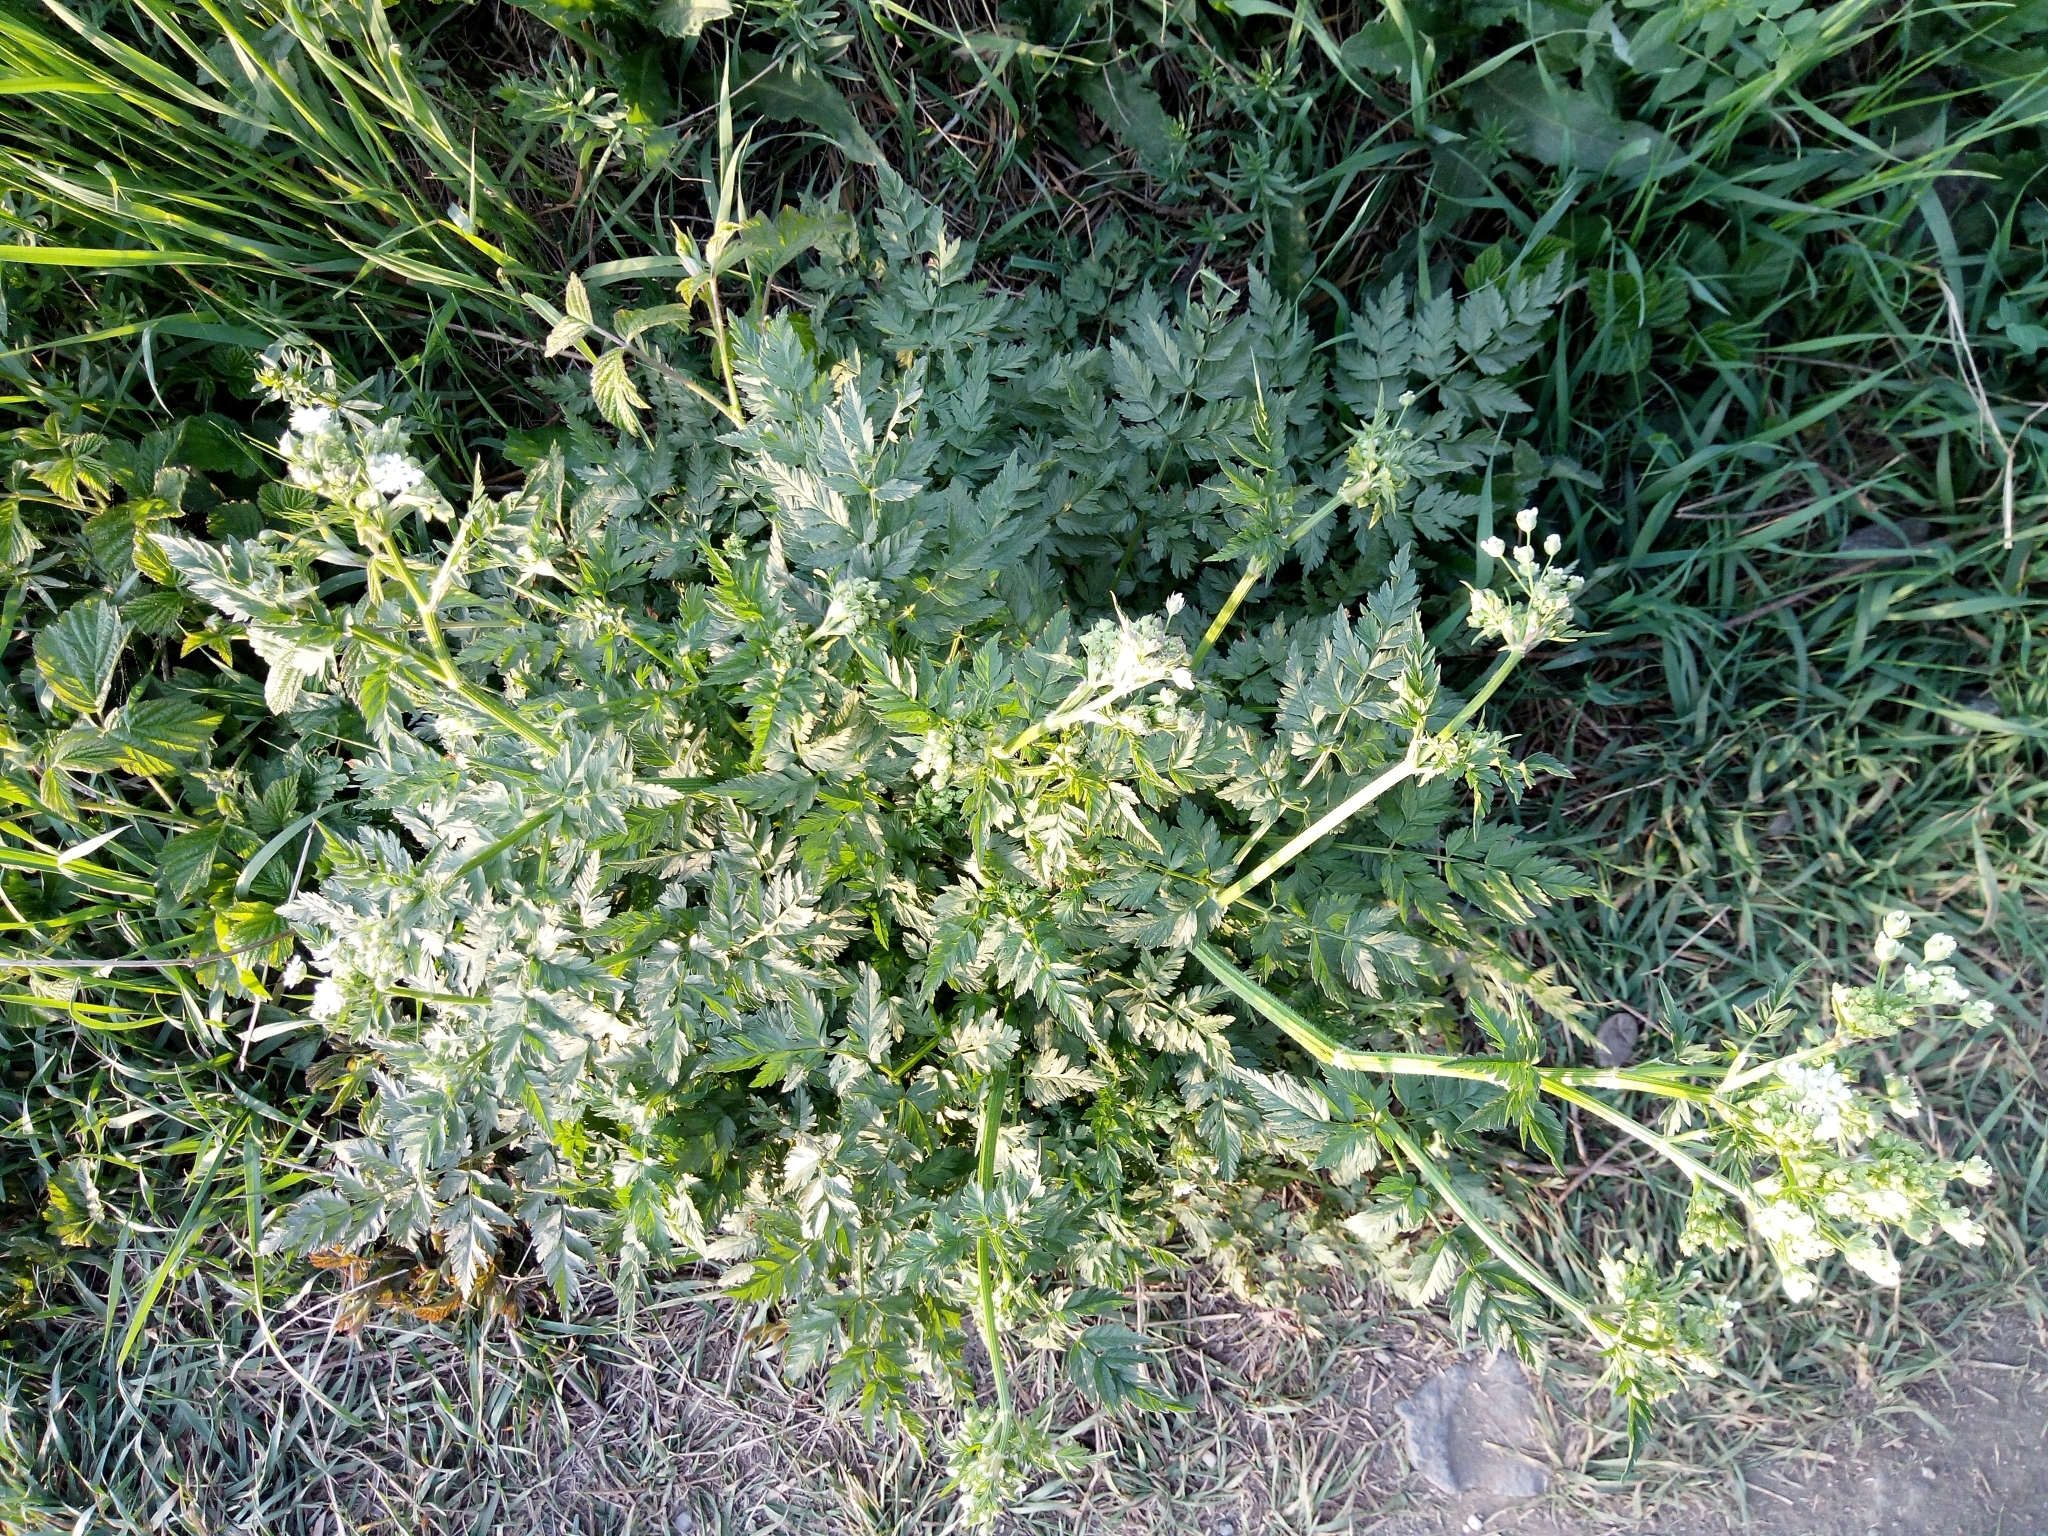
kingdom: Plantae
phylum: Tracheophyta
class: Magnoliopsida
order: Apiales
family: Apiaceae
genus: Anthriscus
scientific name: Anthriscus sylvestris
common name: Cow parsley
